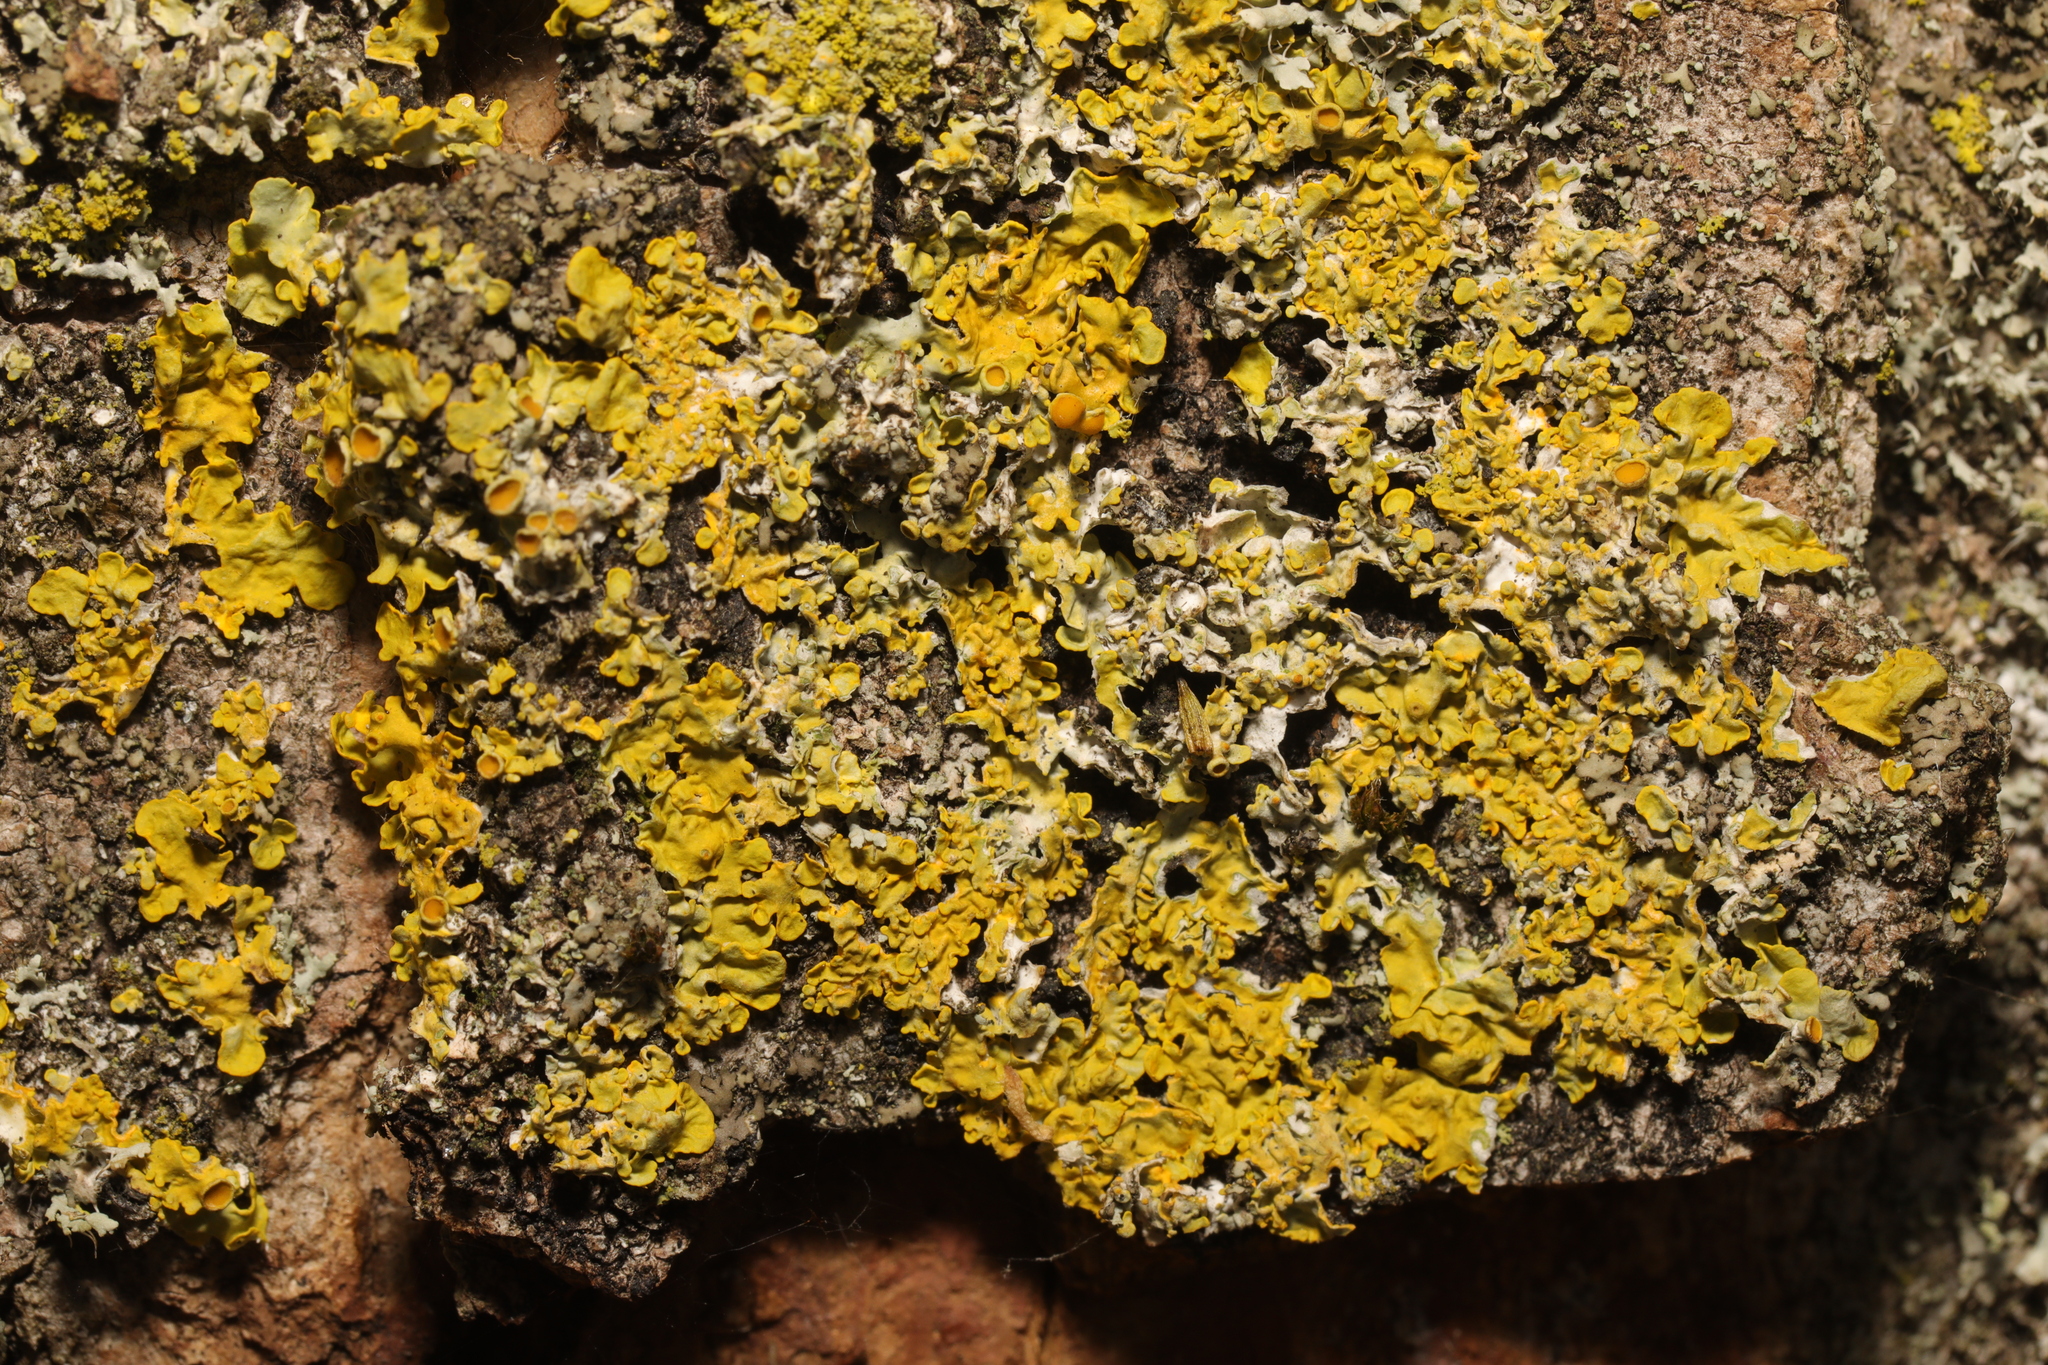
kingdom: Fungi
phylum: Ascomycota
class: Lecanoromycetes
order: Teloschistales
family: Teloschistaceae
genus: Xanthoria
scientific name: Xanthoria parietina
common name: Common orange lichen
